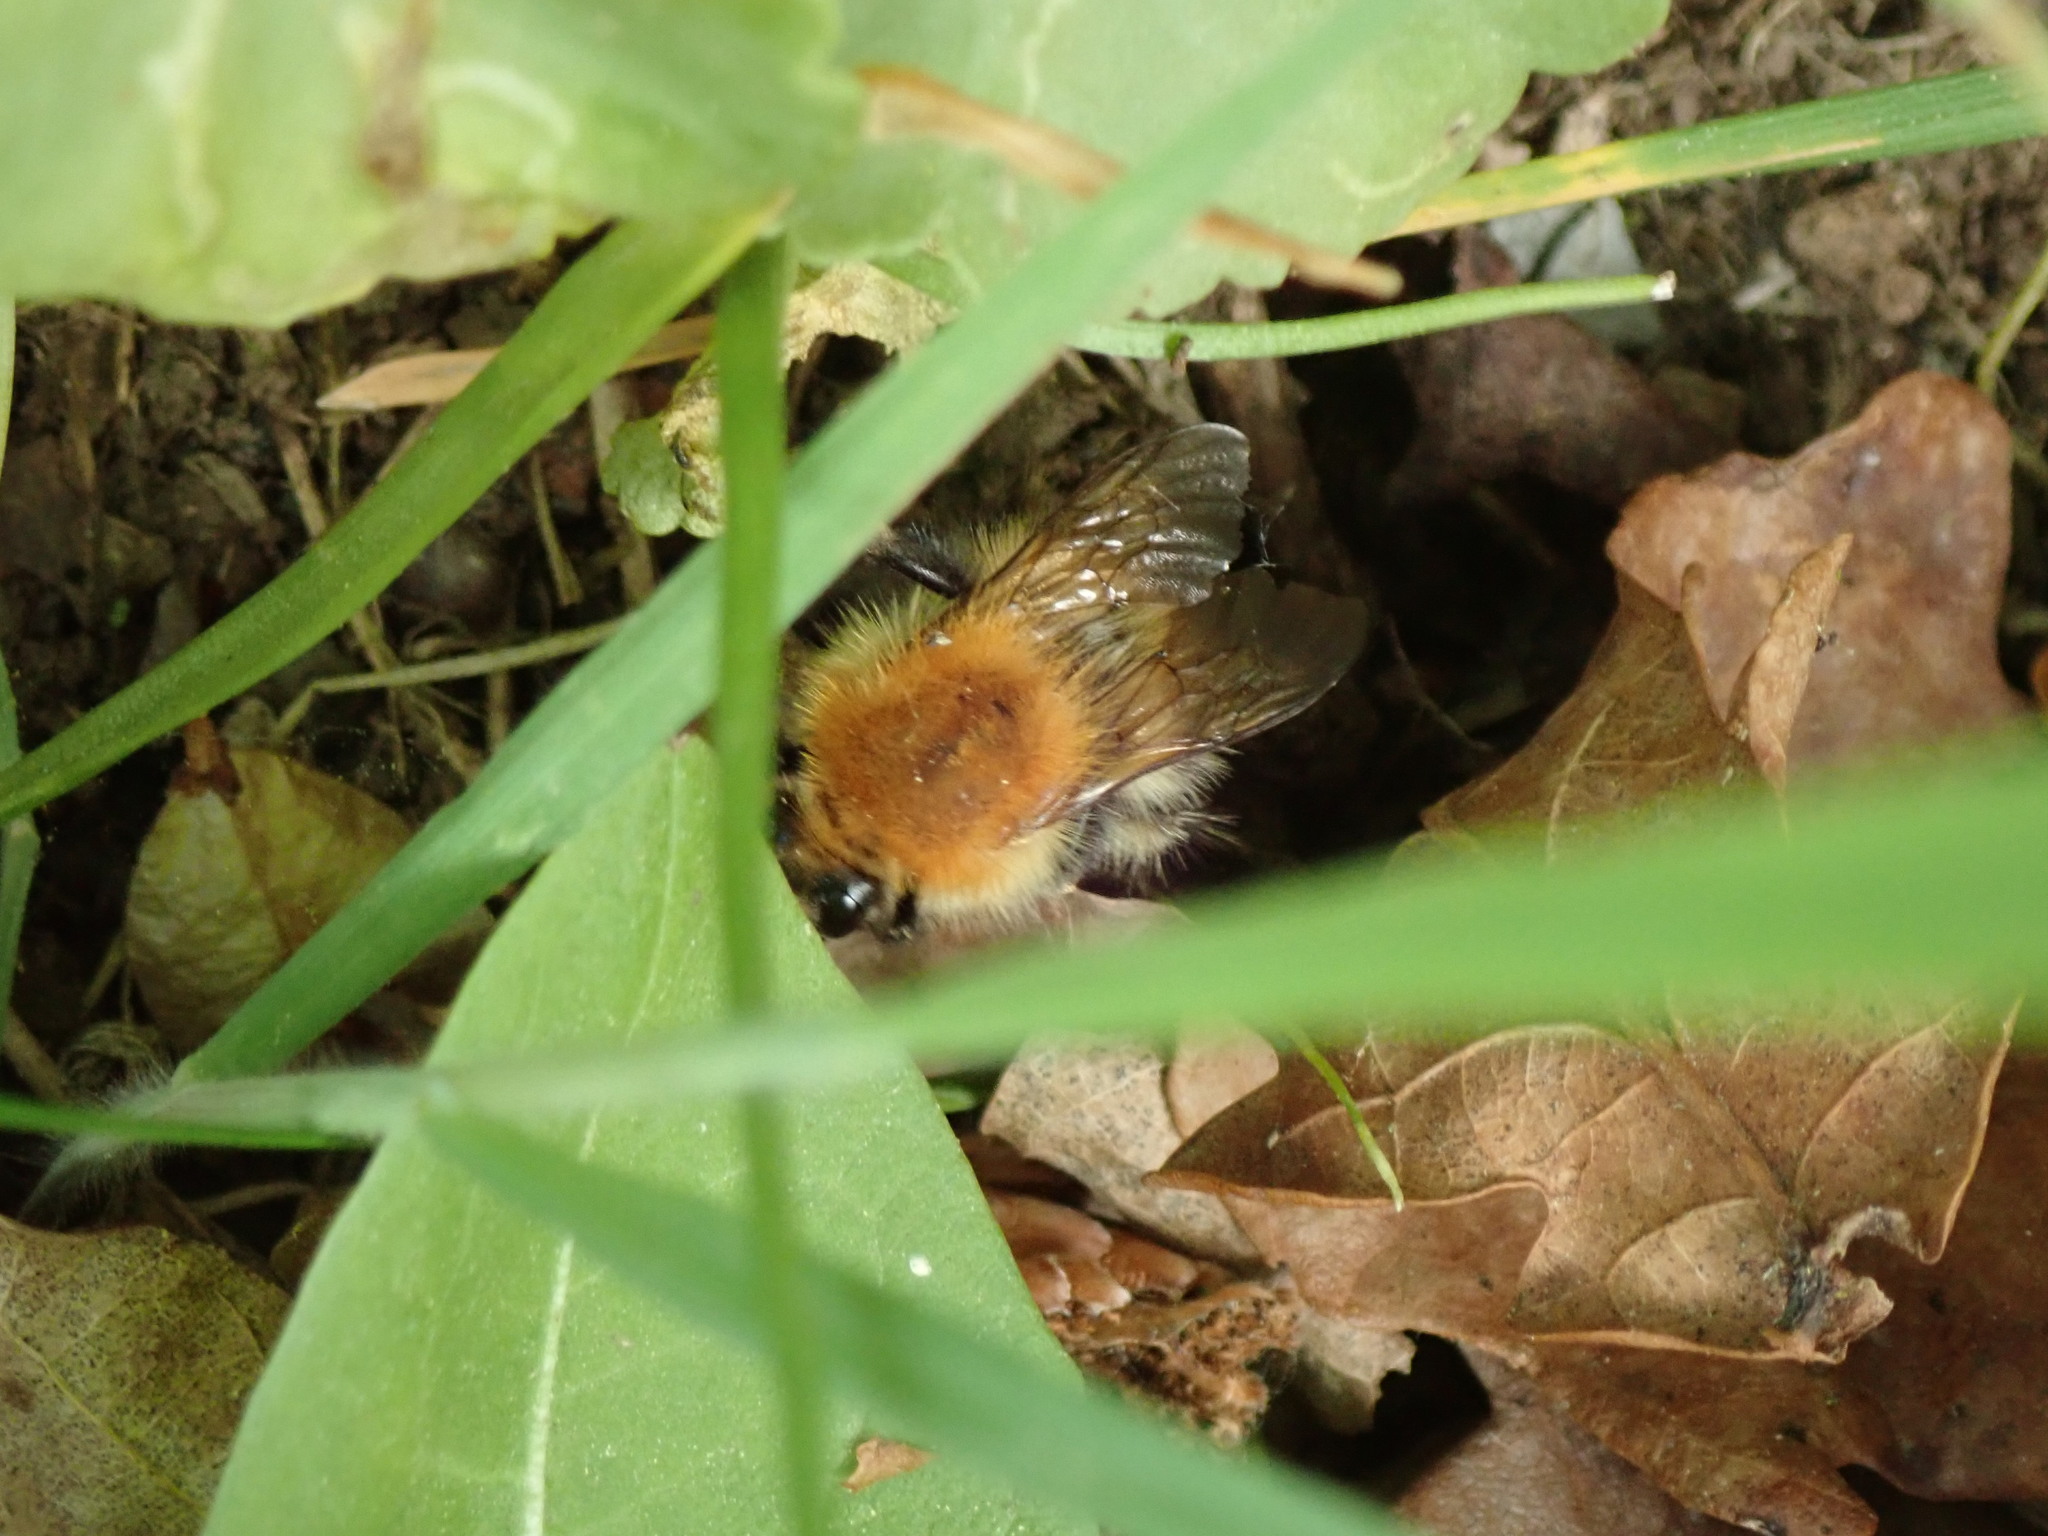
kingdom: Animalia
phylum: Arthropoda
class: Insecta
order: Hymenoptera
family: Apidae
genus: Bombus
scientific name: Bombus pascuorum
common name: Common carder bee
